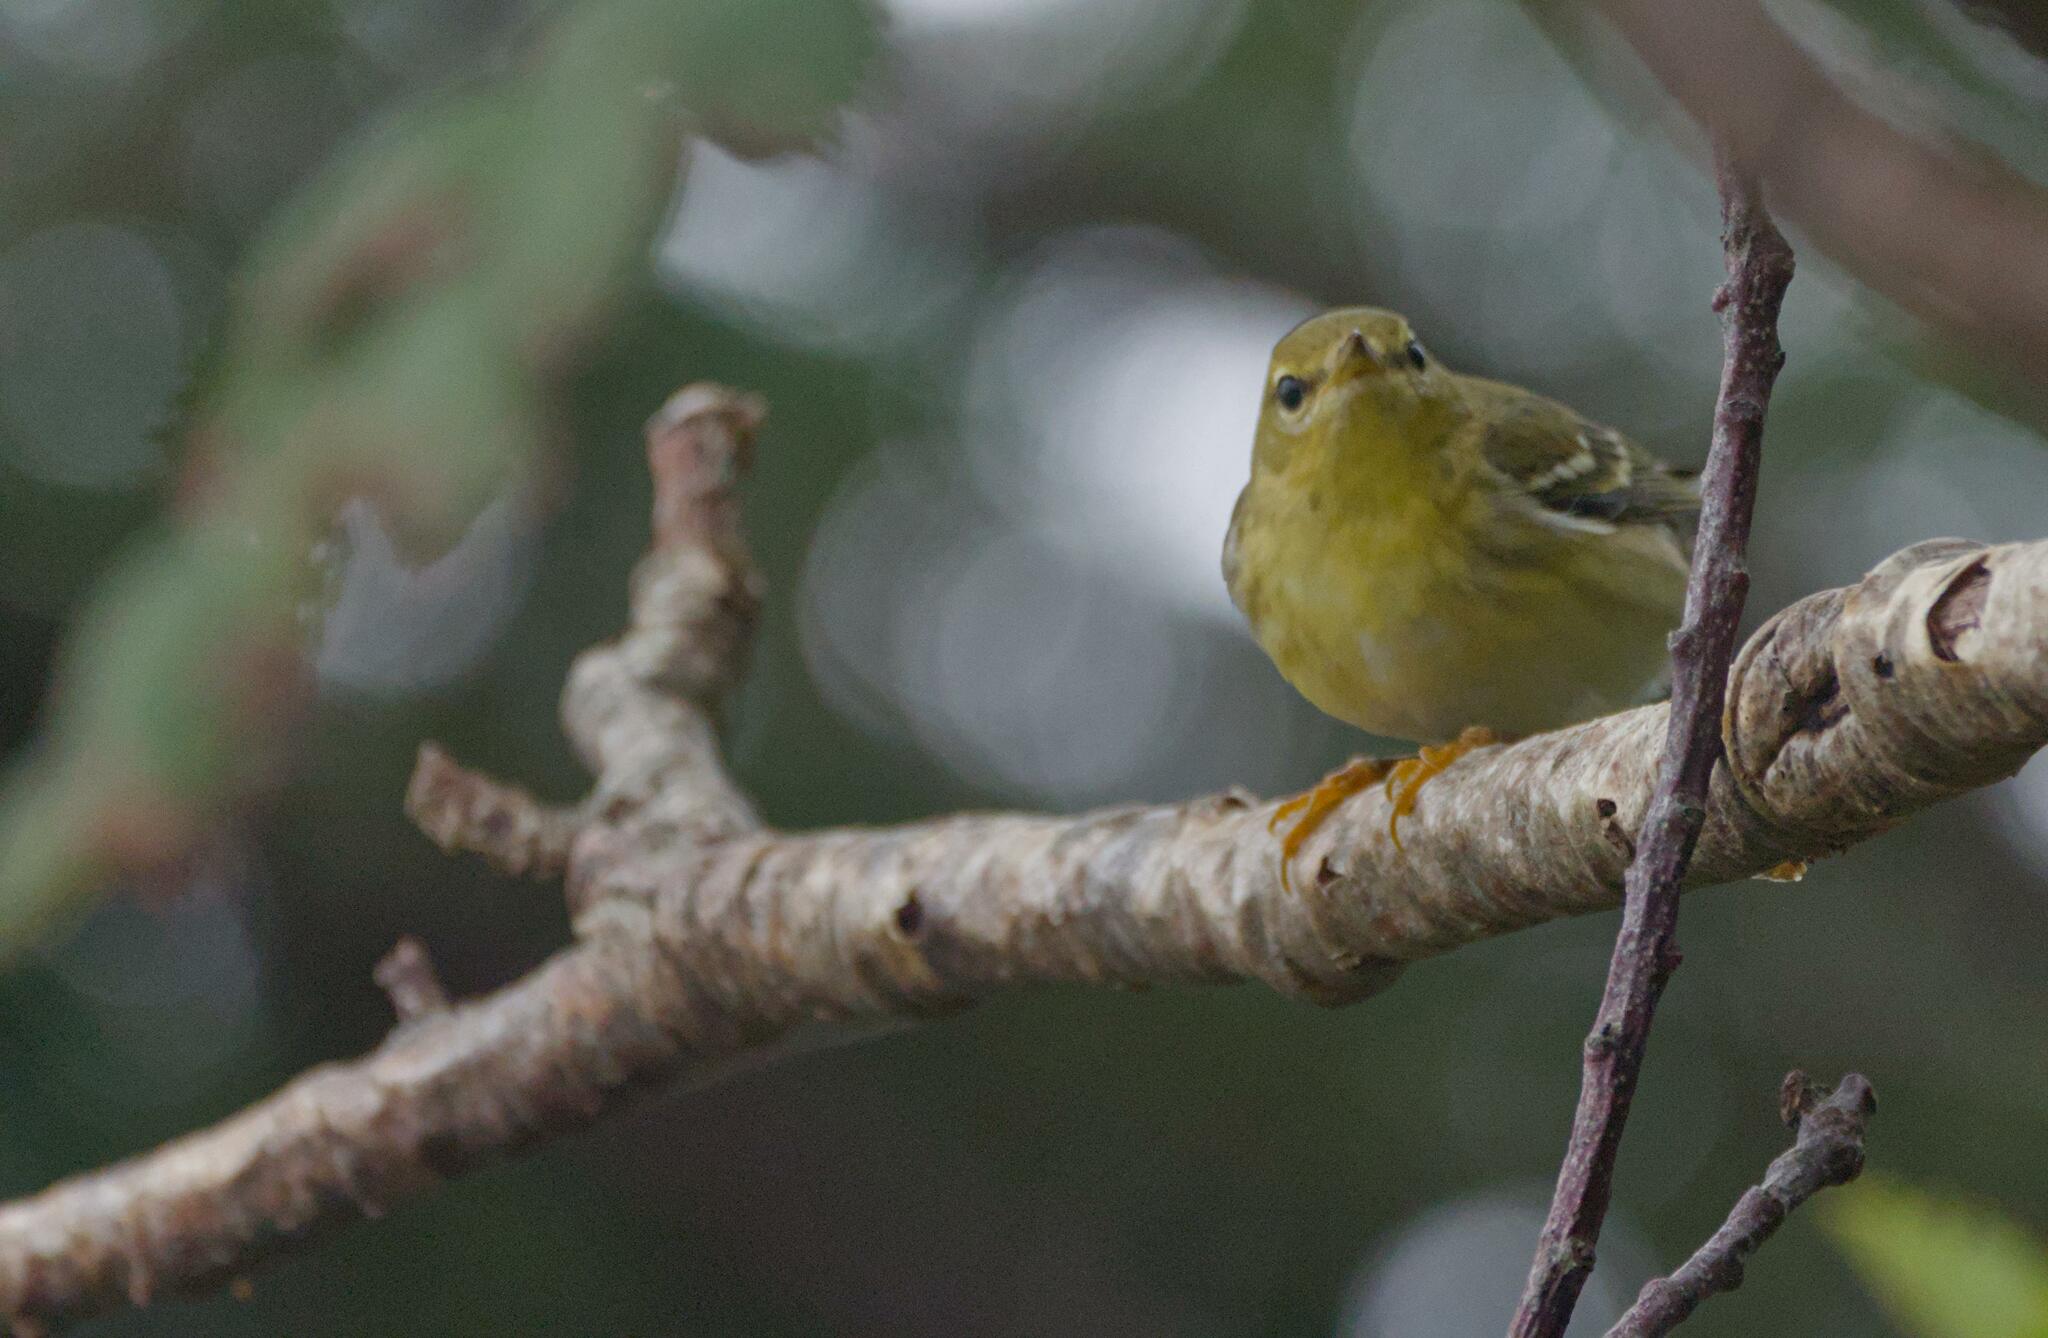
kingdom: Animalia
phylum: Chordata
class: Aves
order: Passeriformes
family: Parulidae
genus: Setophaga
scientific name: Setophaga striata
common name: Blackpoll warbler
